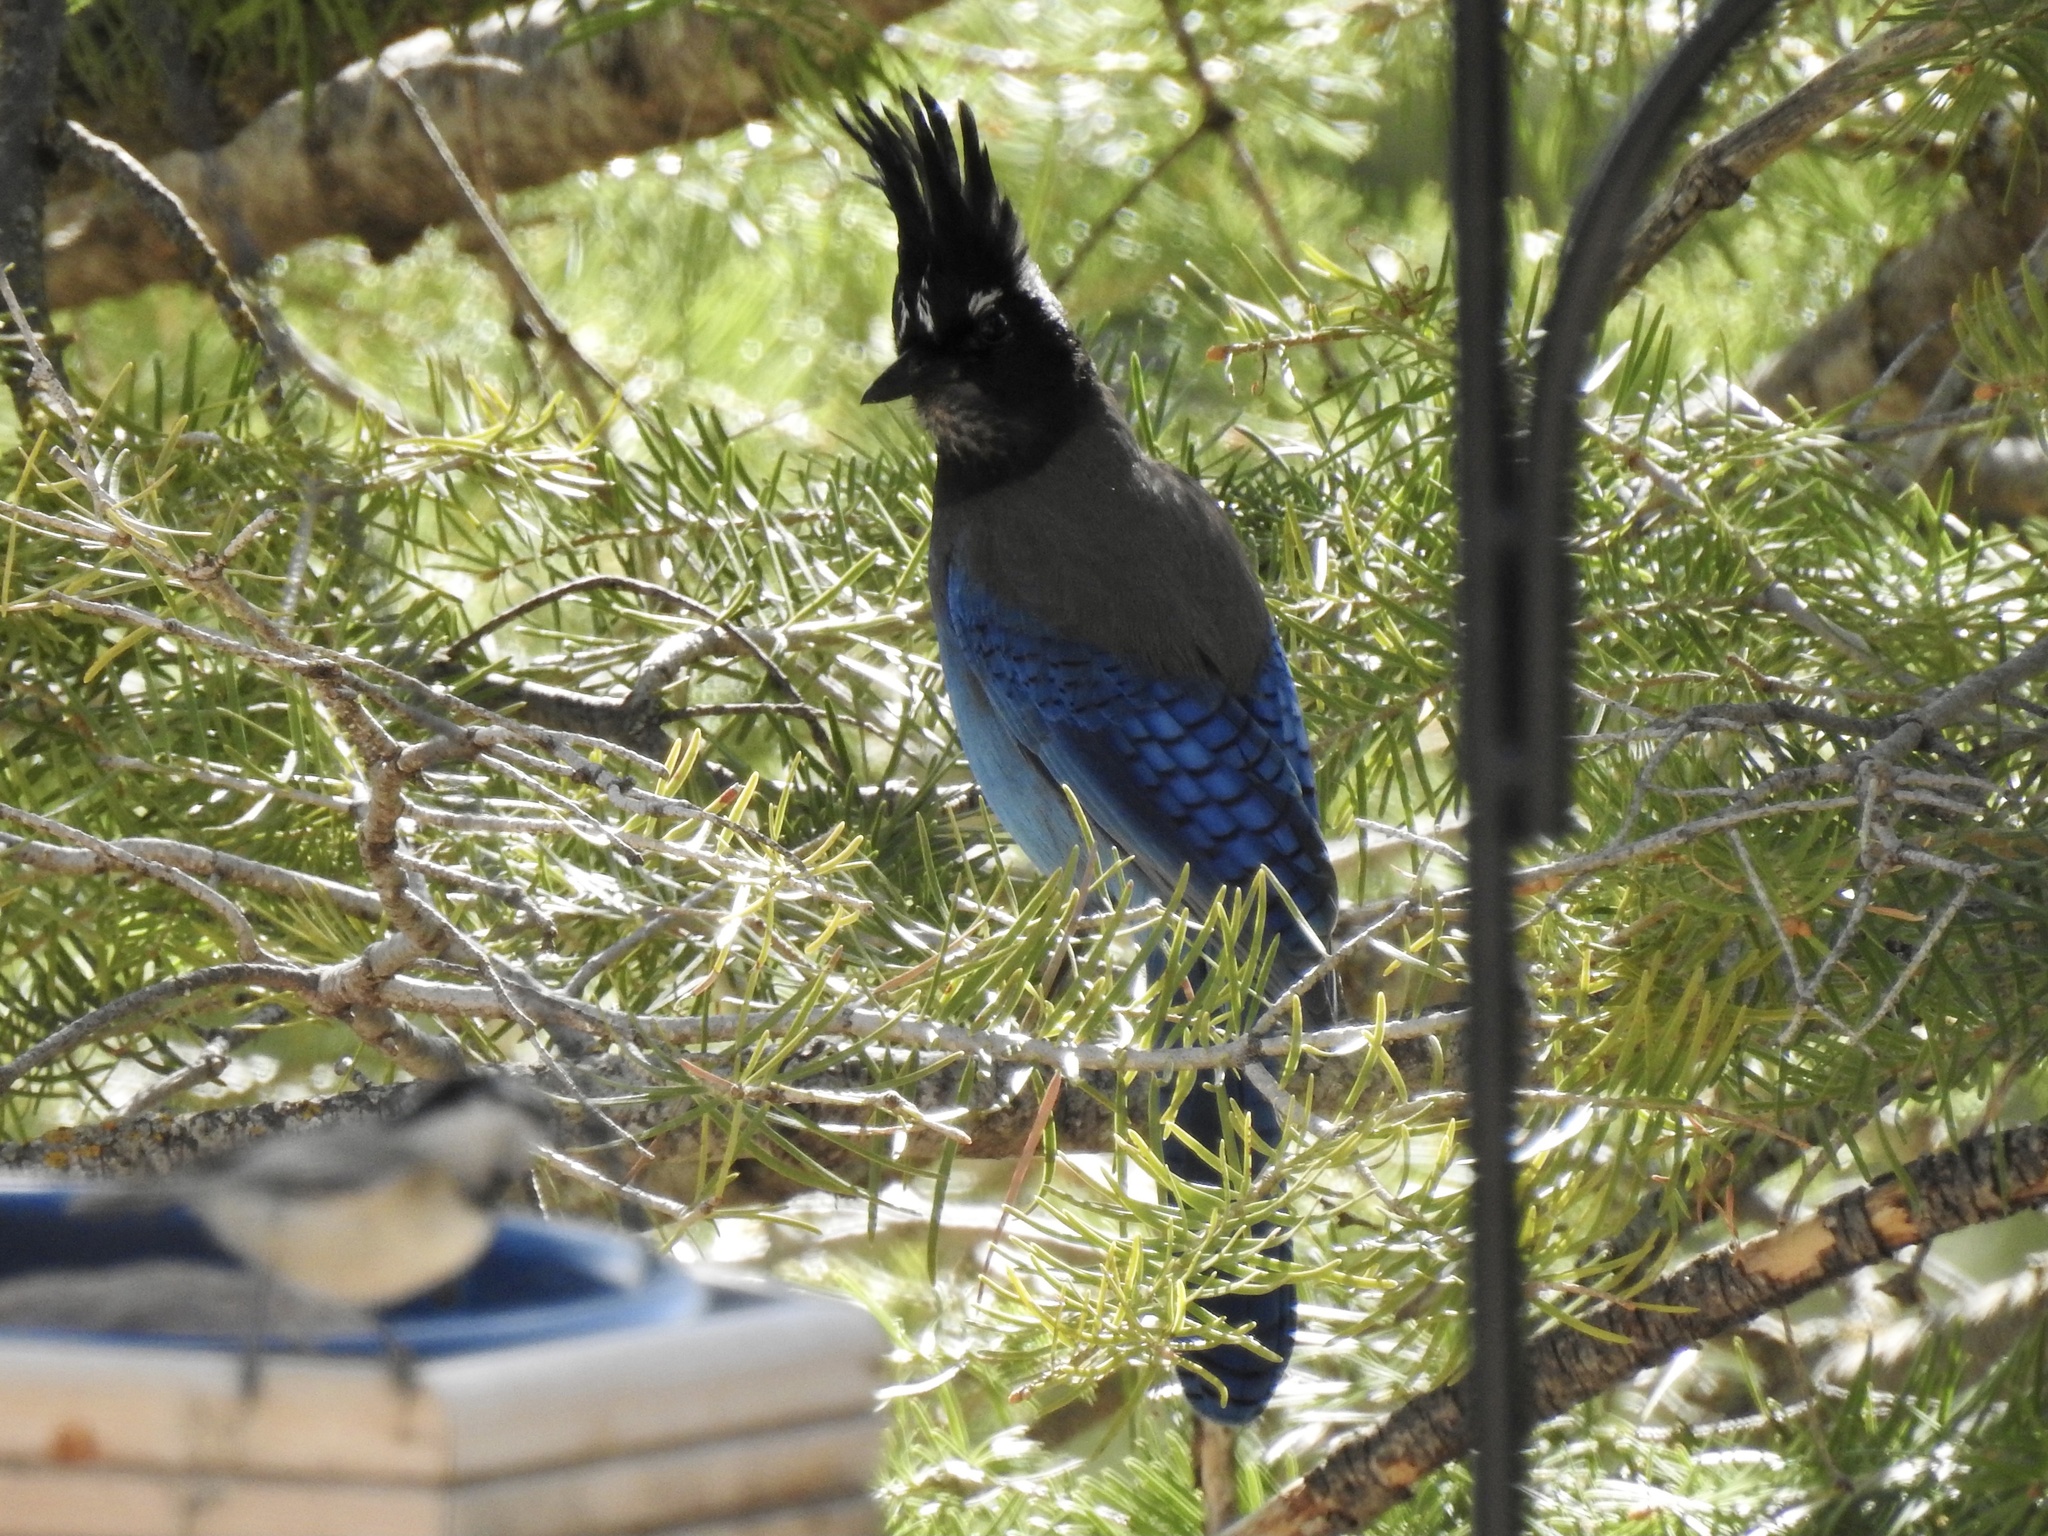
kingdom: Animalia
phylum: Chordata
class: Aves
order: Passeriformes
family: Corvidae
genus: Cyanocitta
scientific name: Cyanocitta stelleri
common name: Steller's jay
